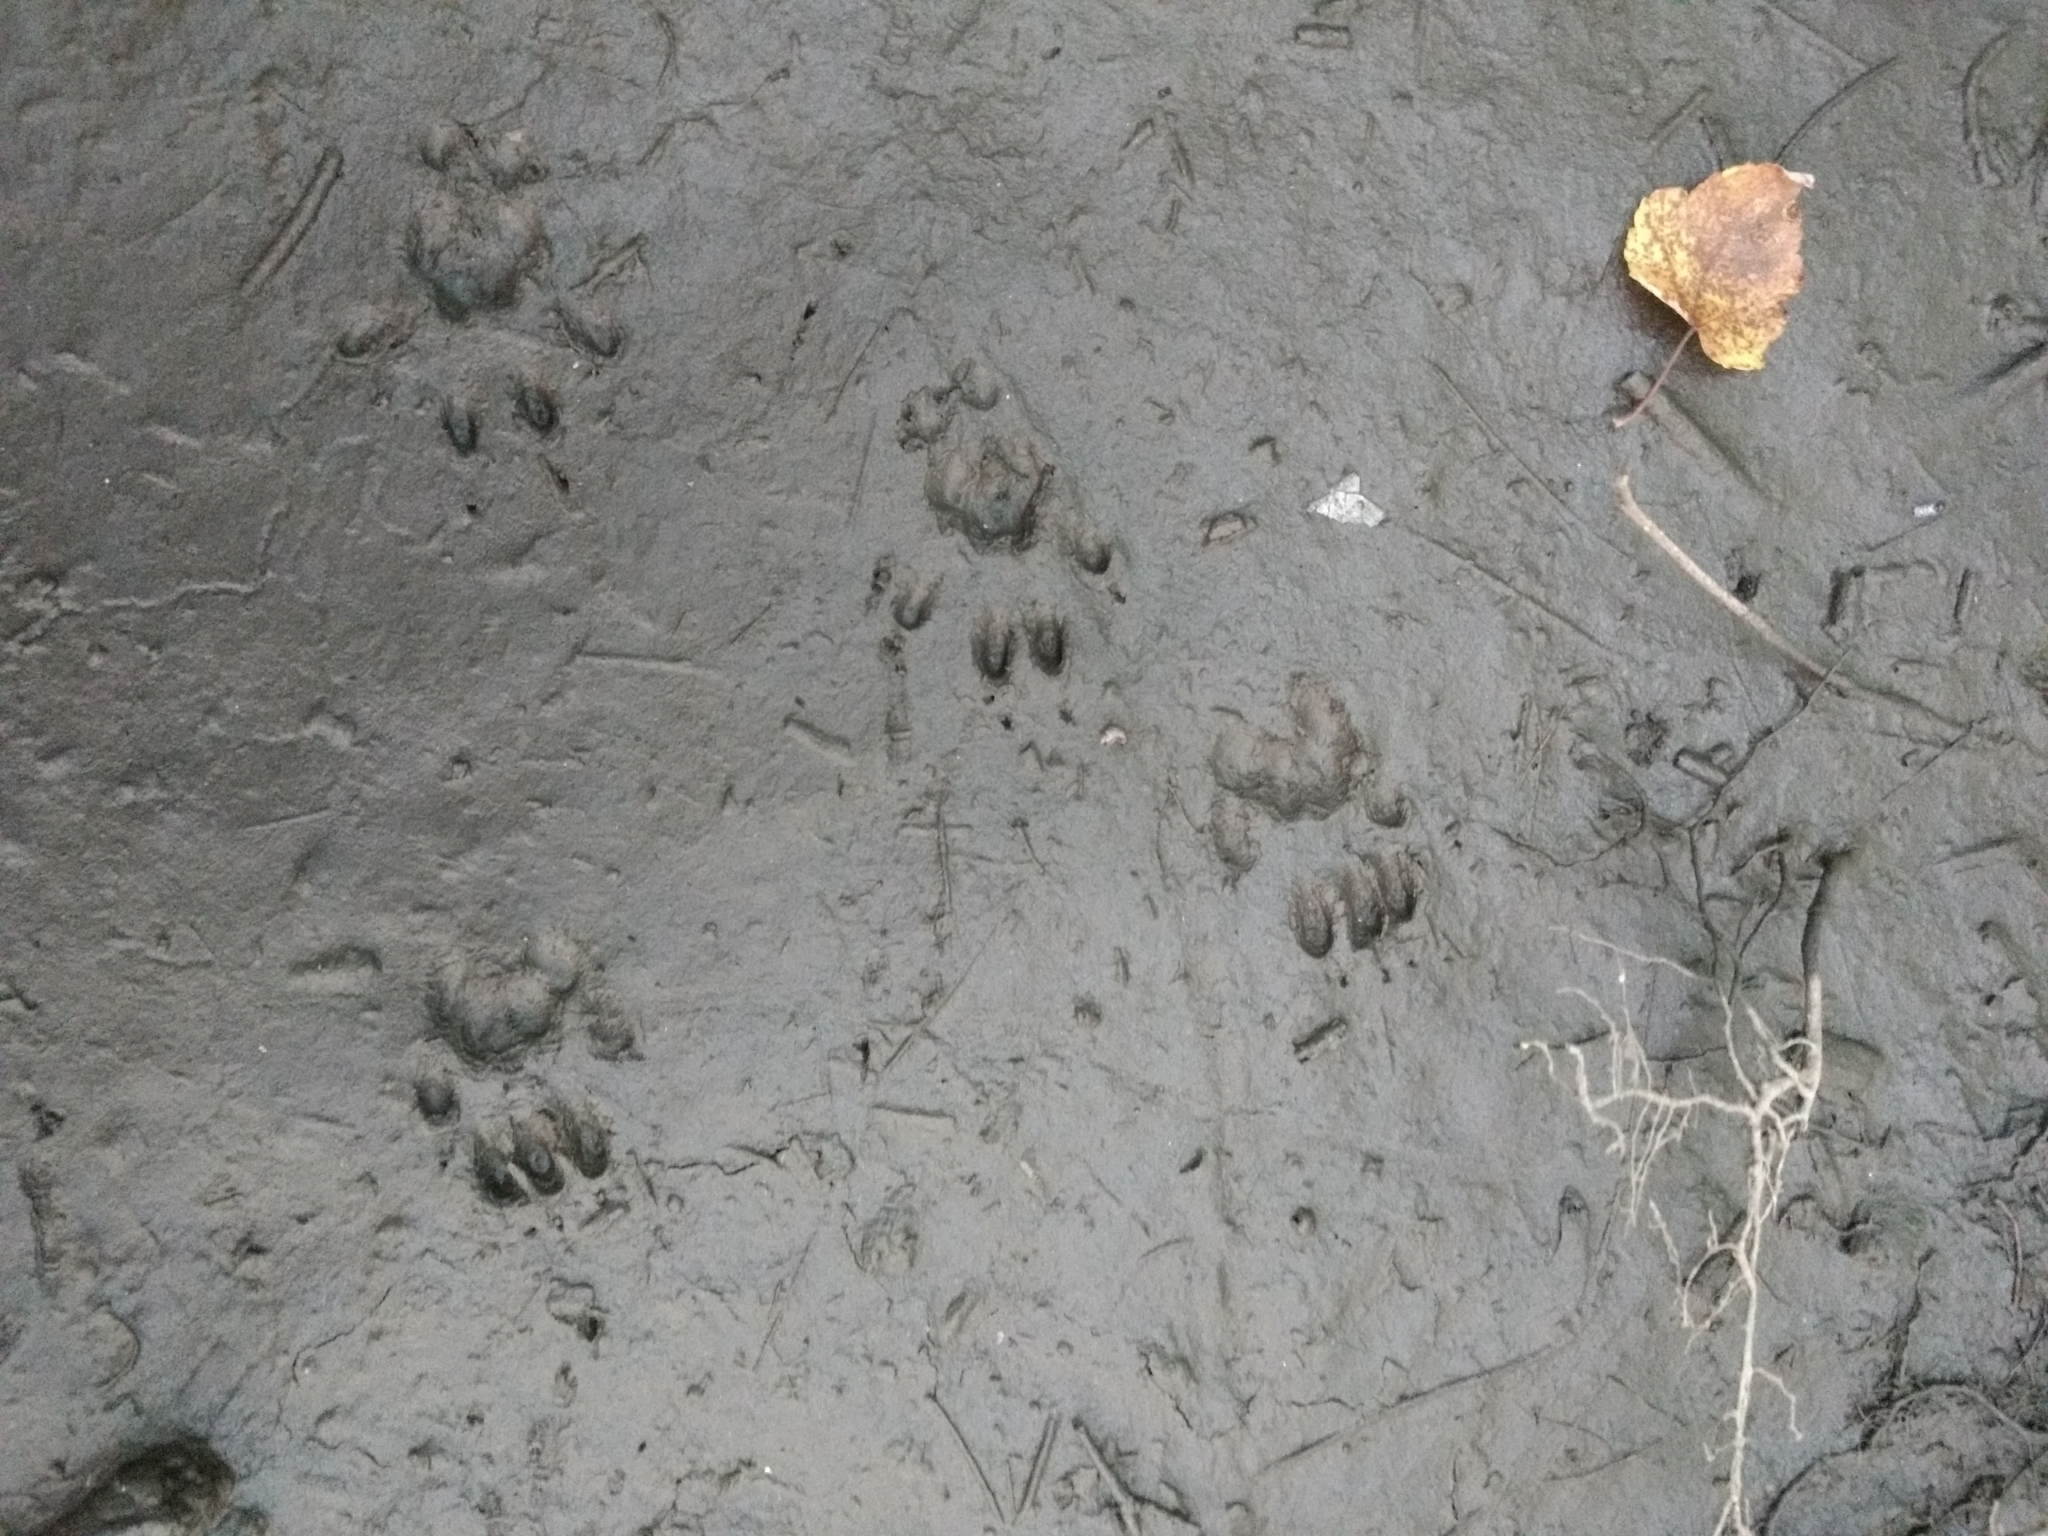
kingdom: Animalia
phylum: Chordata
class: Mammalia
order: Rodentia
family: Sciuridae
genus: Sciurus
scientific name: Sciurus carolinensis
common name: Eastern gray squirrel
